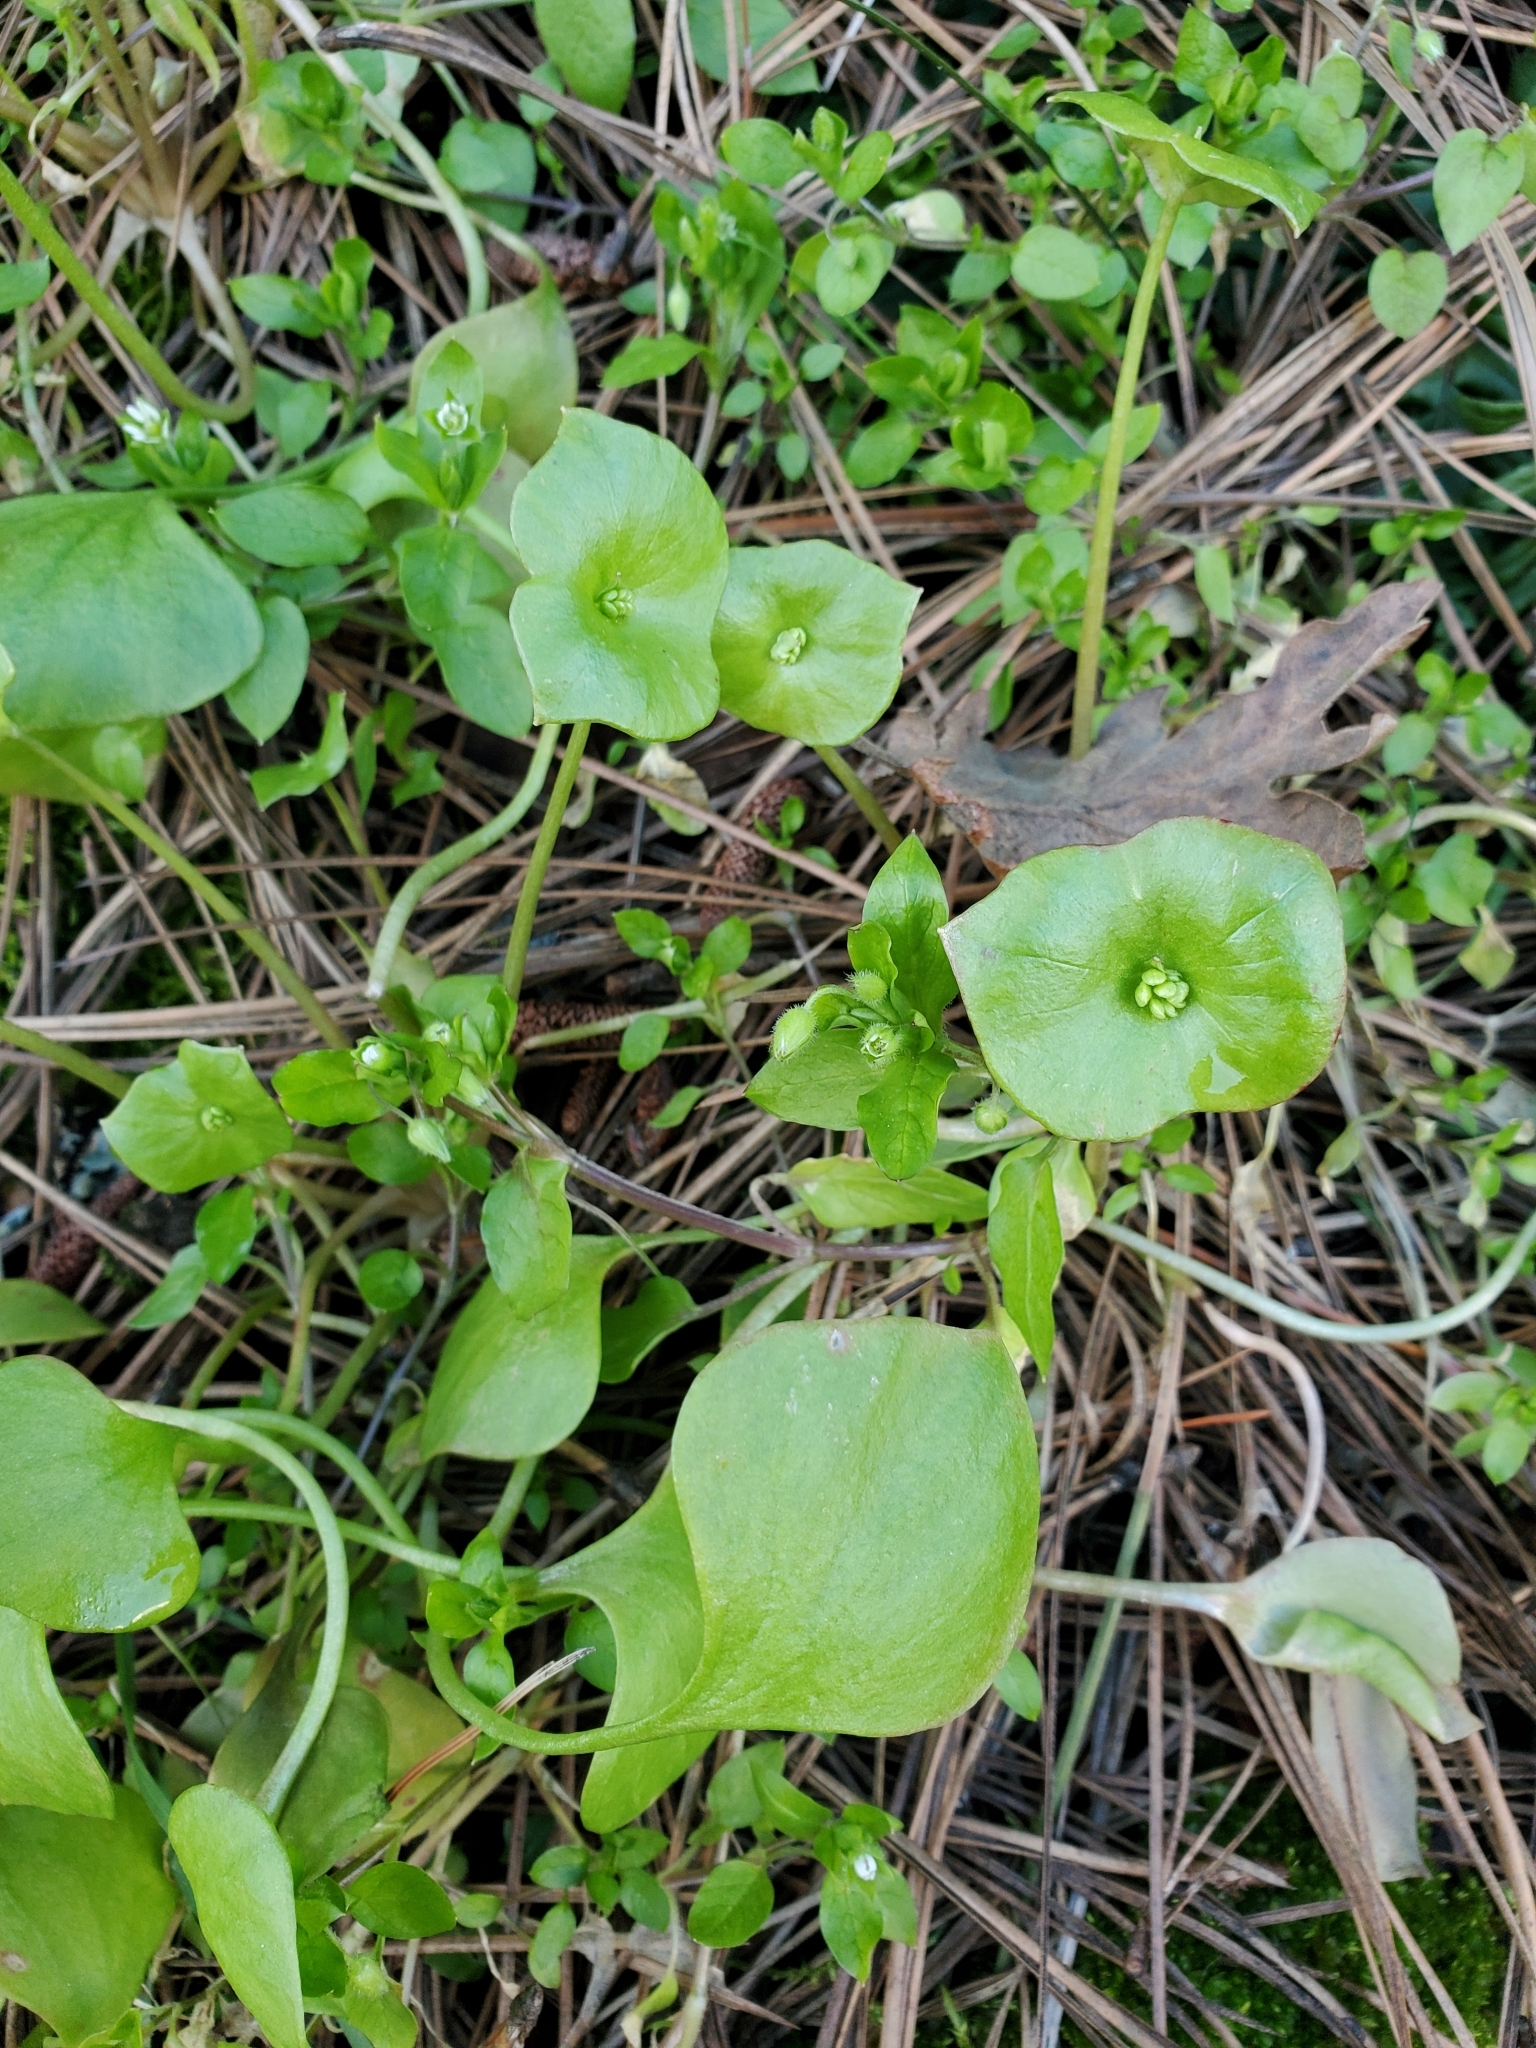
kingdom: Plantae
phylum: Tracheophyta
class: Magnoliopsida
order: Caryophyllales
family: Montiaceae
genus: Claytonia
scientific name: Claytonia perfoliata
